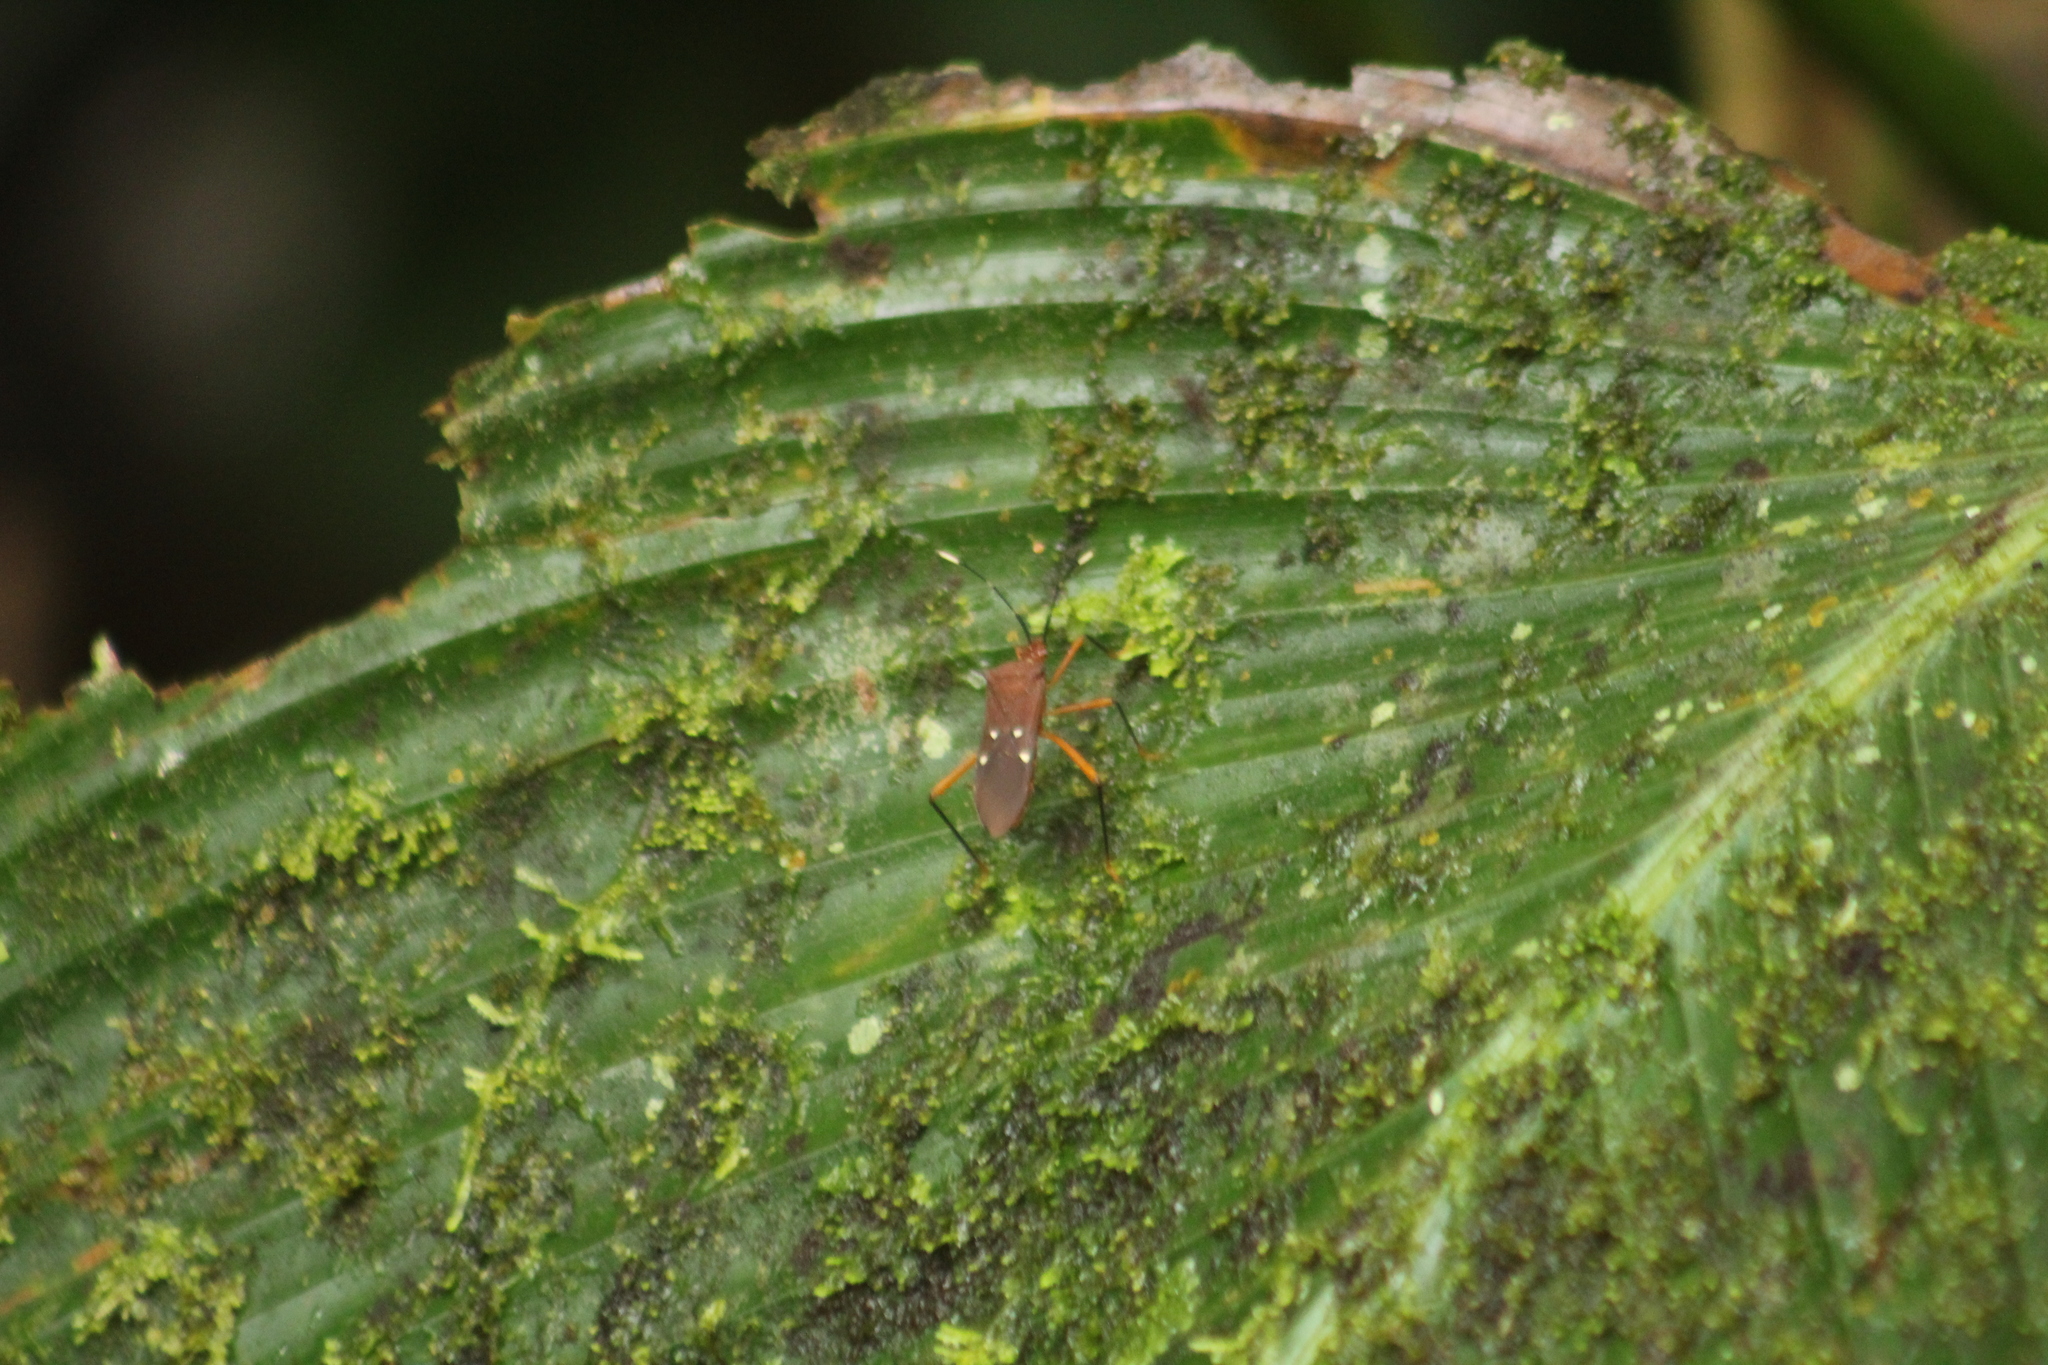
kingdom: Animalia
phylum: Arthropoda
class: Insecta
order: Hemiptera
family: Coreidae
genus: Leptoscelis
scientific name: Leptoscelis quadrisignatus
